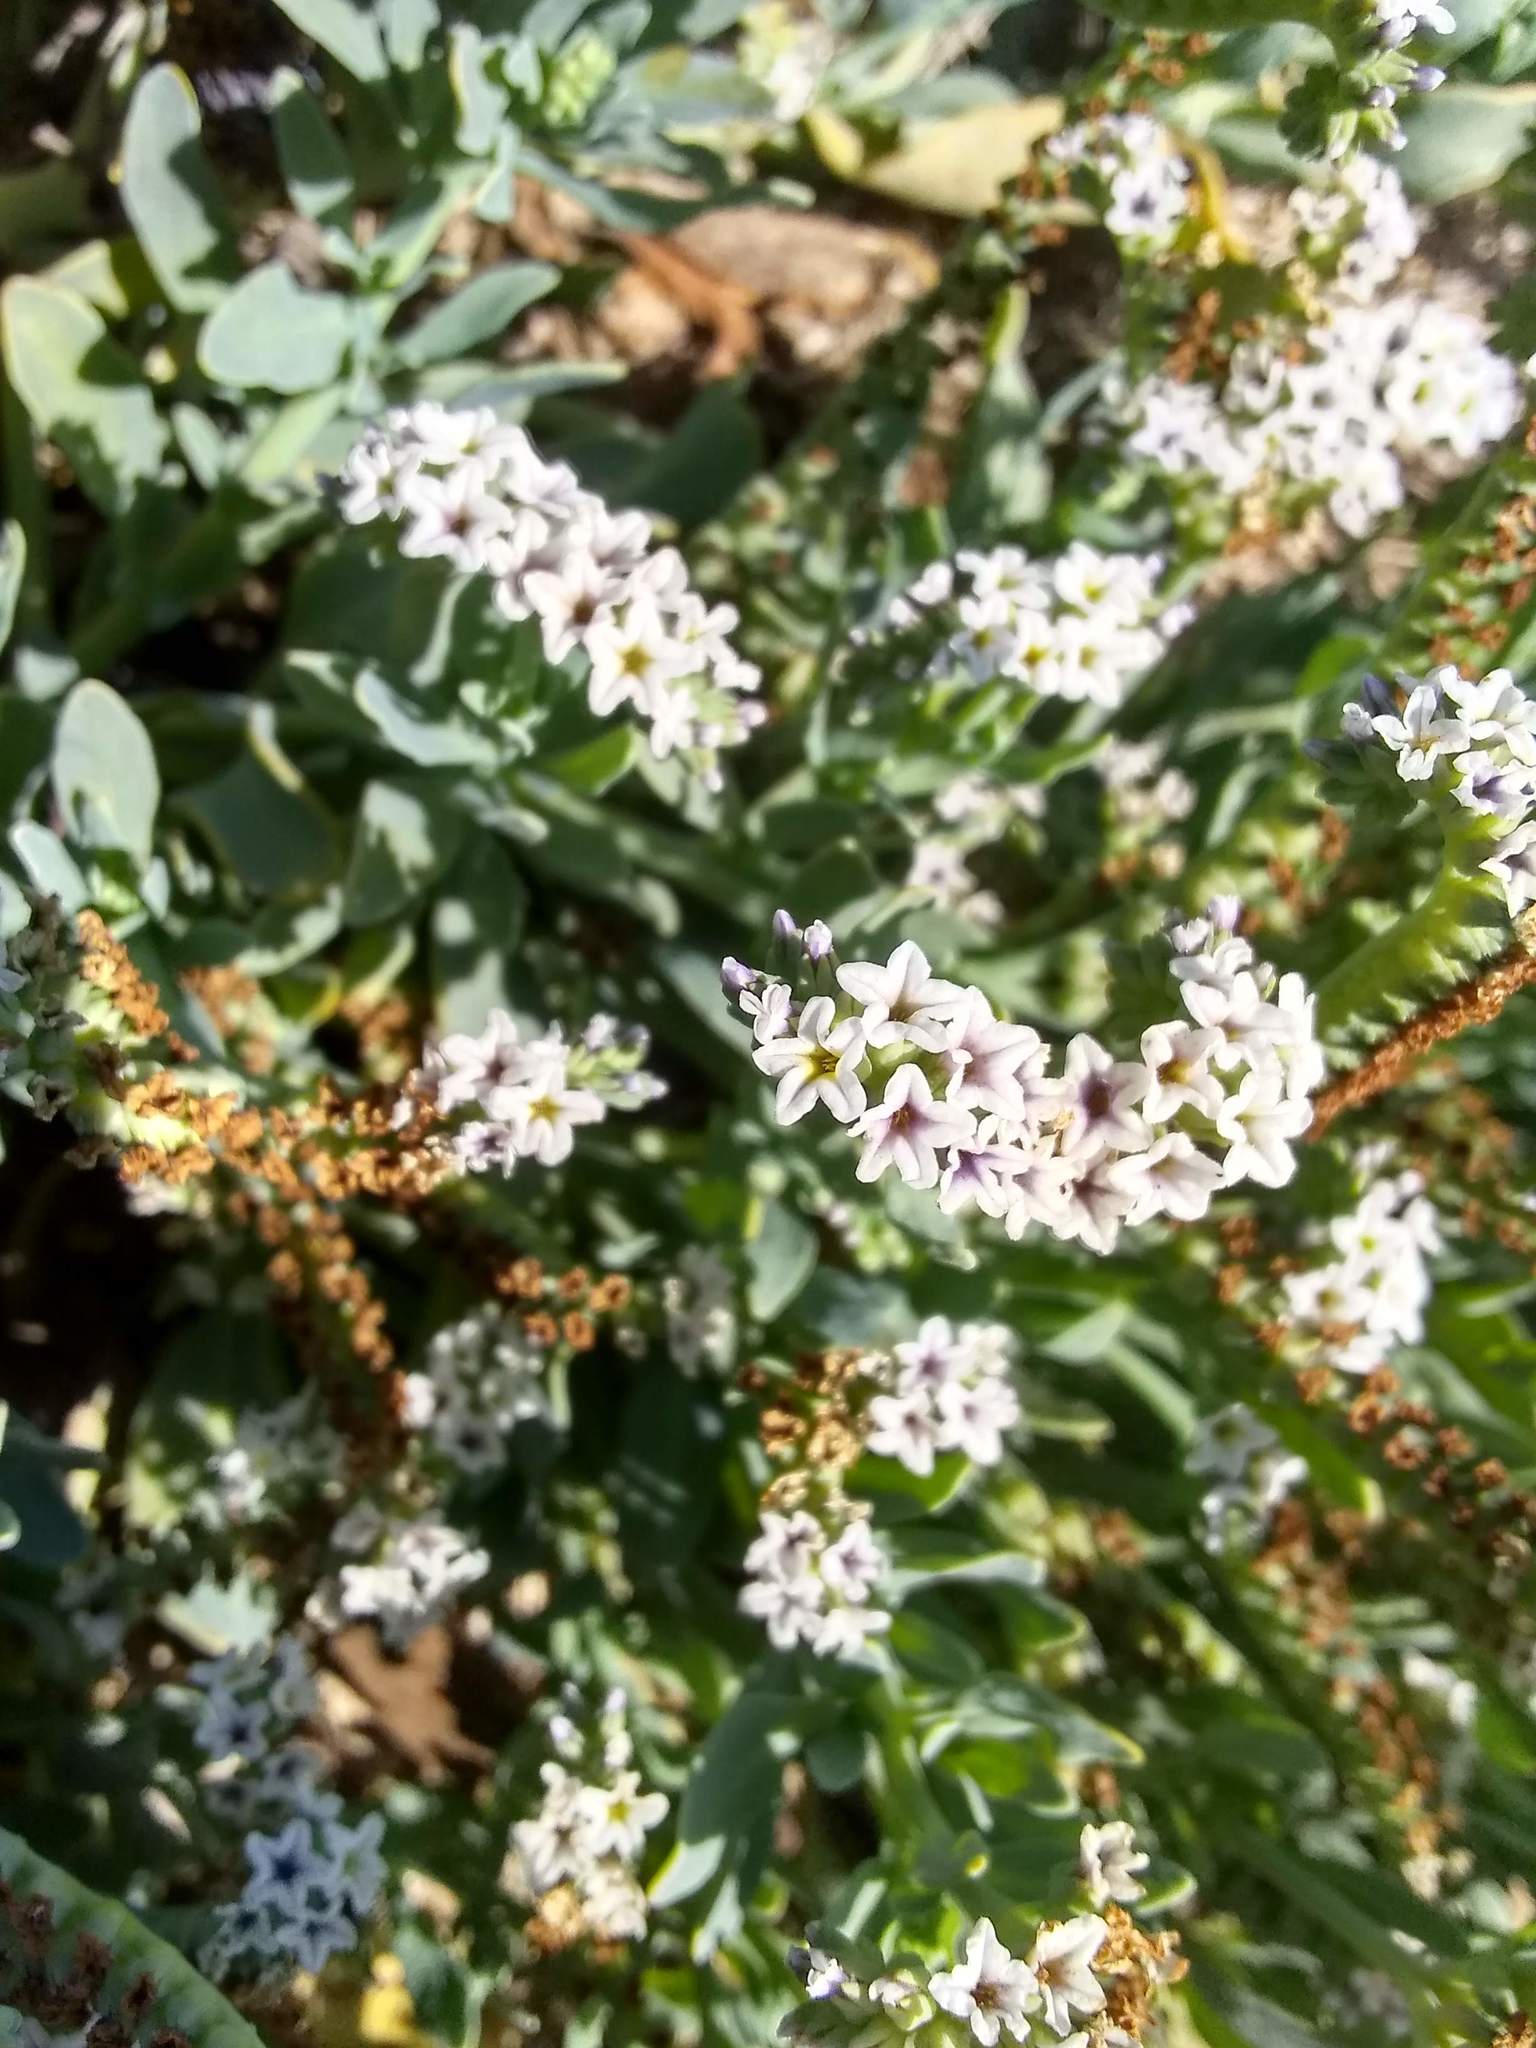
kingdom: Plantae
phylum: Tracheophyta
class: Magnoliopsida
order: Boraginales
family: Heliotropiaceae
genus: Heliotropium
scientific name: Heliotropium curassavicum
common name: Seaside heliotrope
